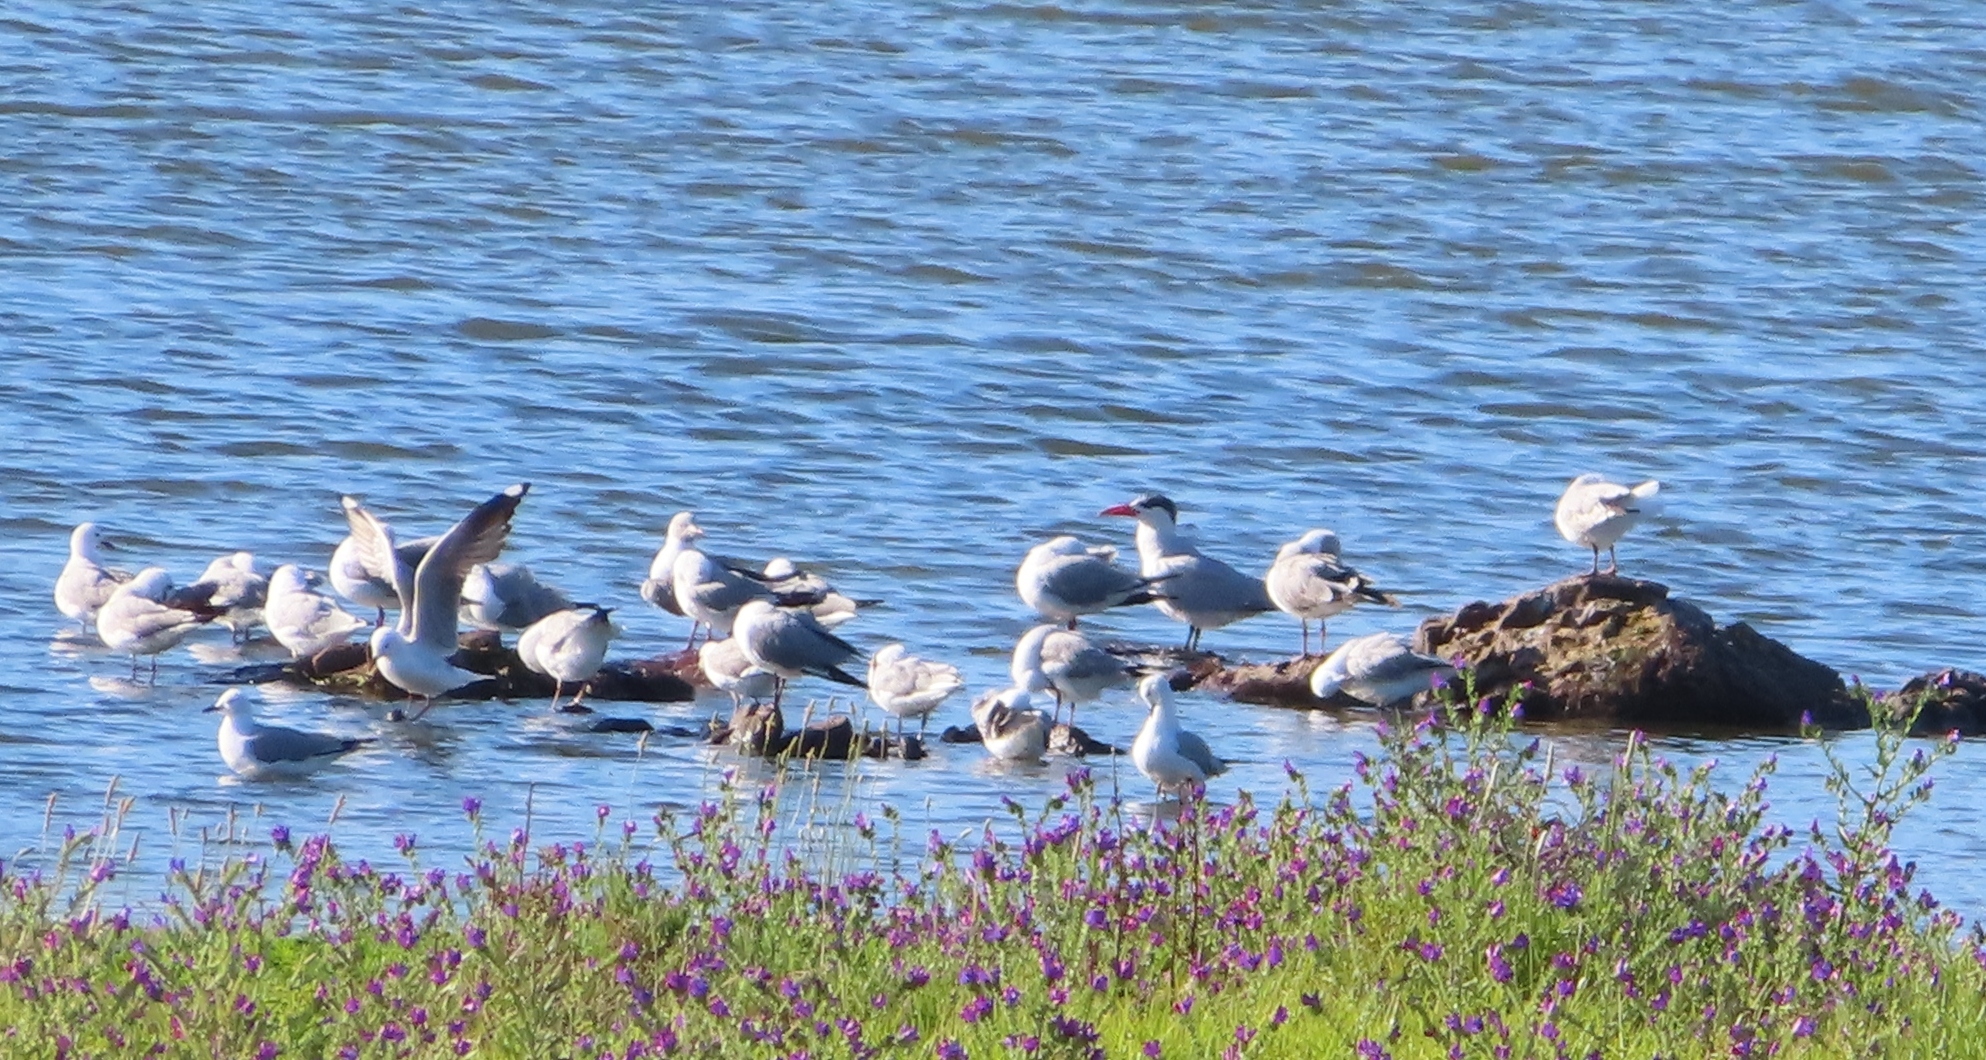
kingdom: Animalia
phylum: Chordata
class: Aves
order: Charadriiformes
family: Laridae
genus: Hydroprogne
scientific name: Hydroprogne caspia
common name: Caspian tern
